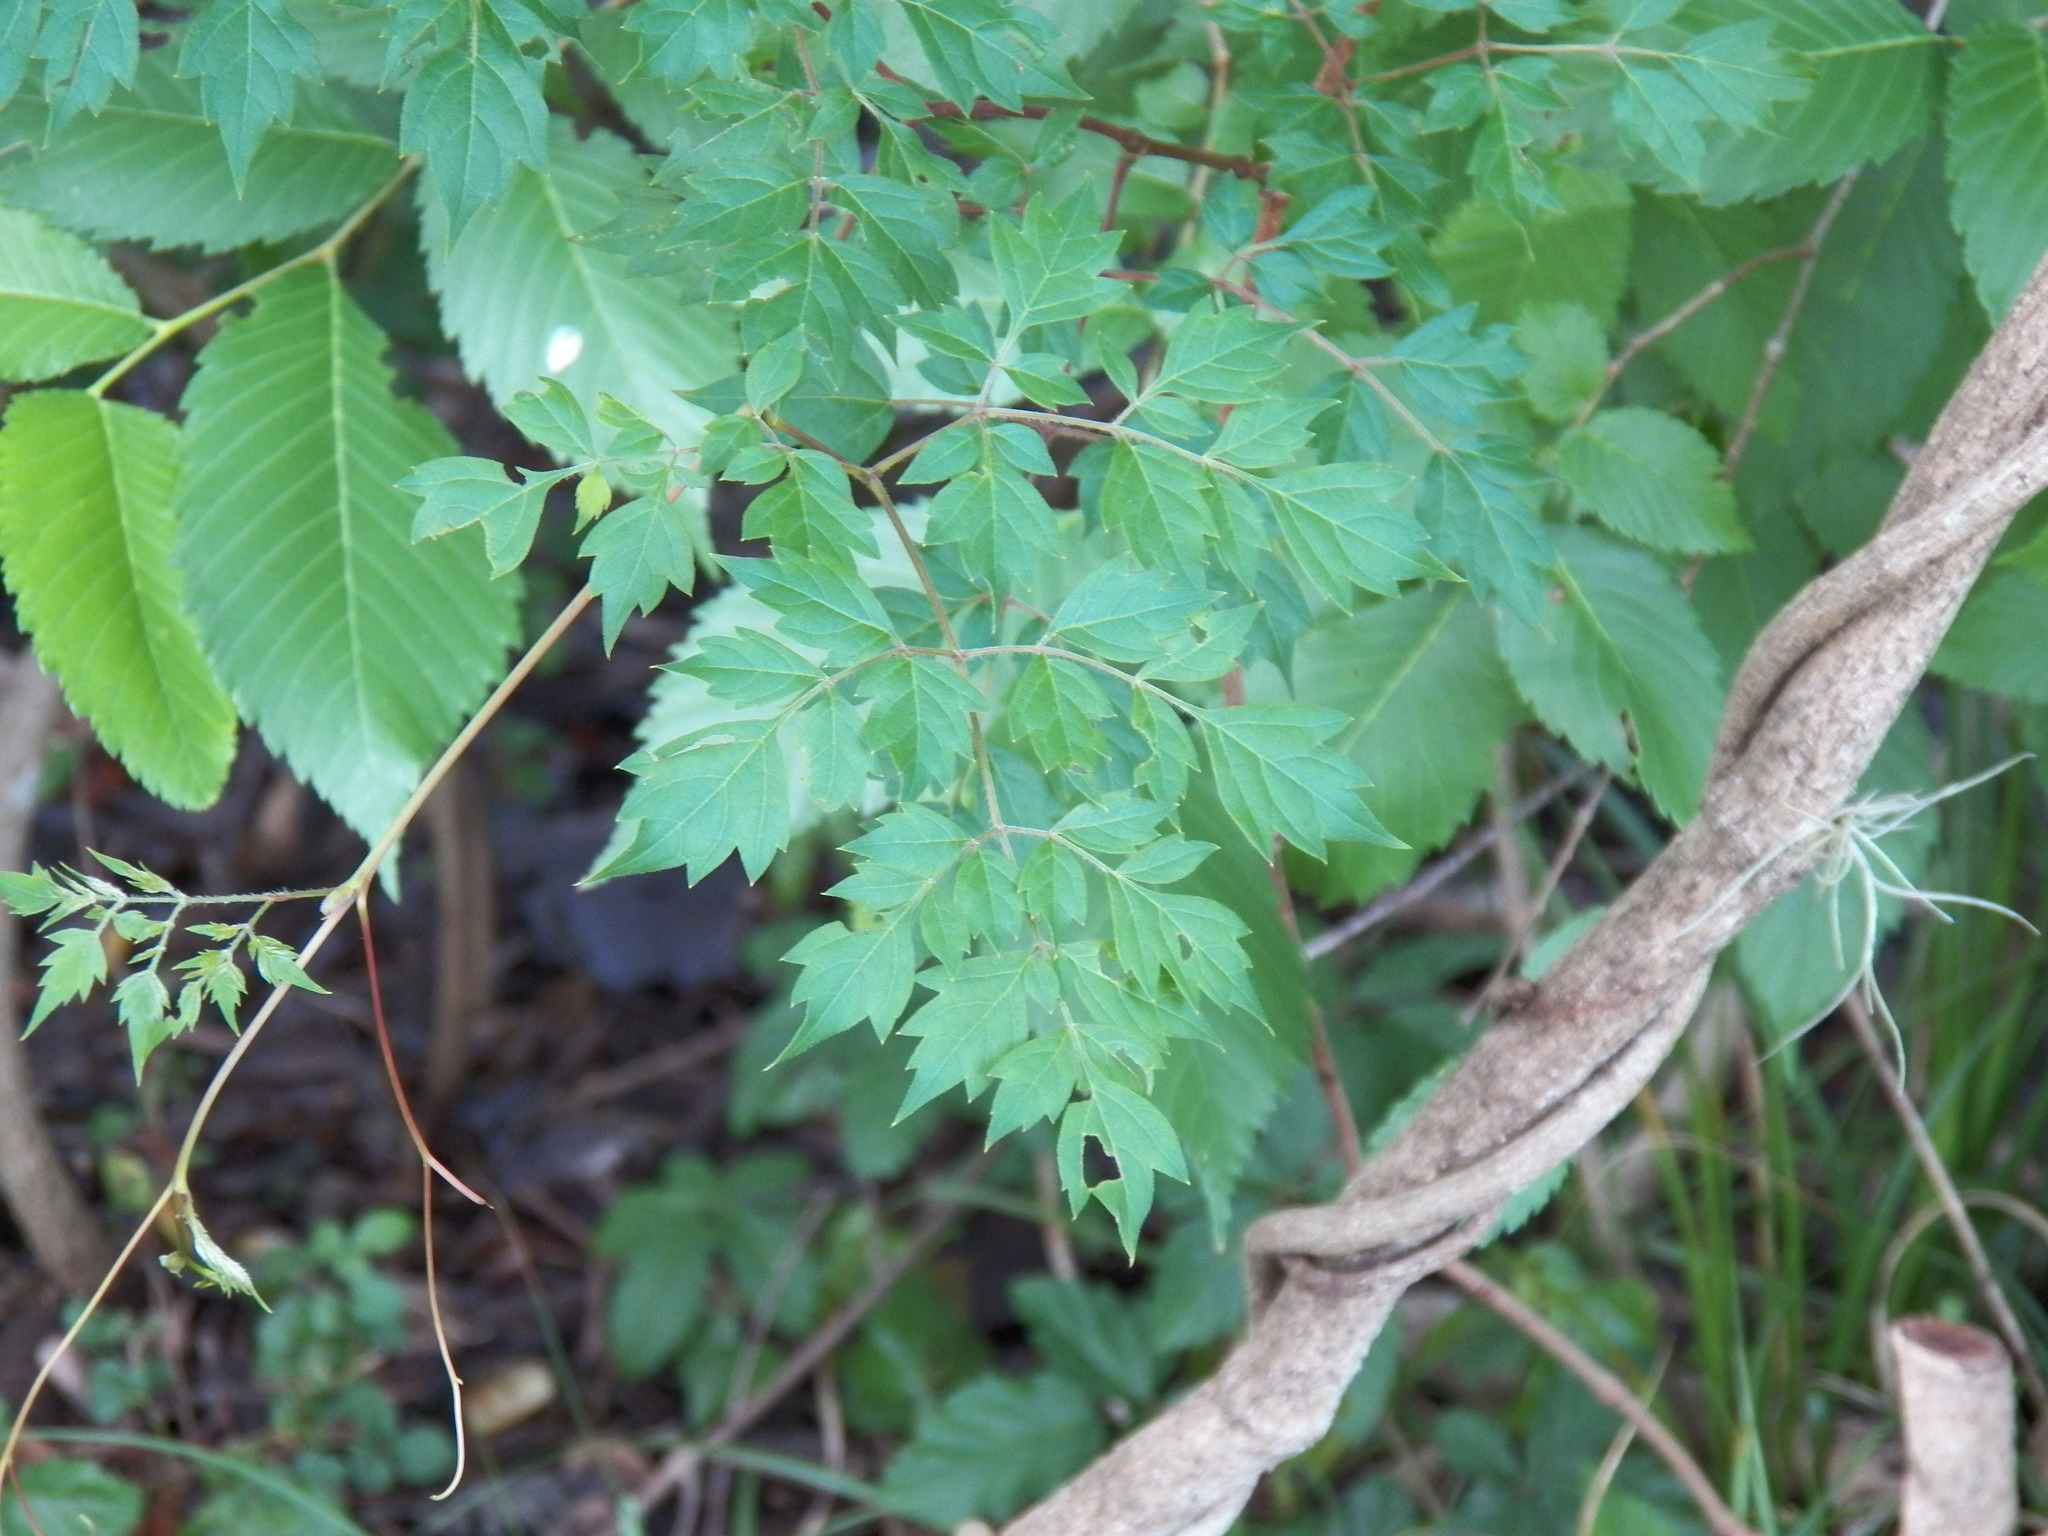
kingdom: Plantae
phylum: Tracheophyta
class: Magnoliopsida
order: Vitales
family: Vitaceae
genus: Nekemias
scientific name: Nekemias arborea
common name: Peppervine
